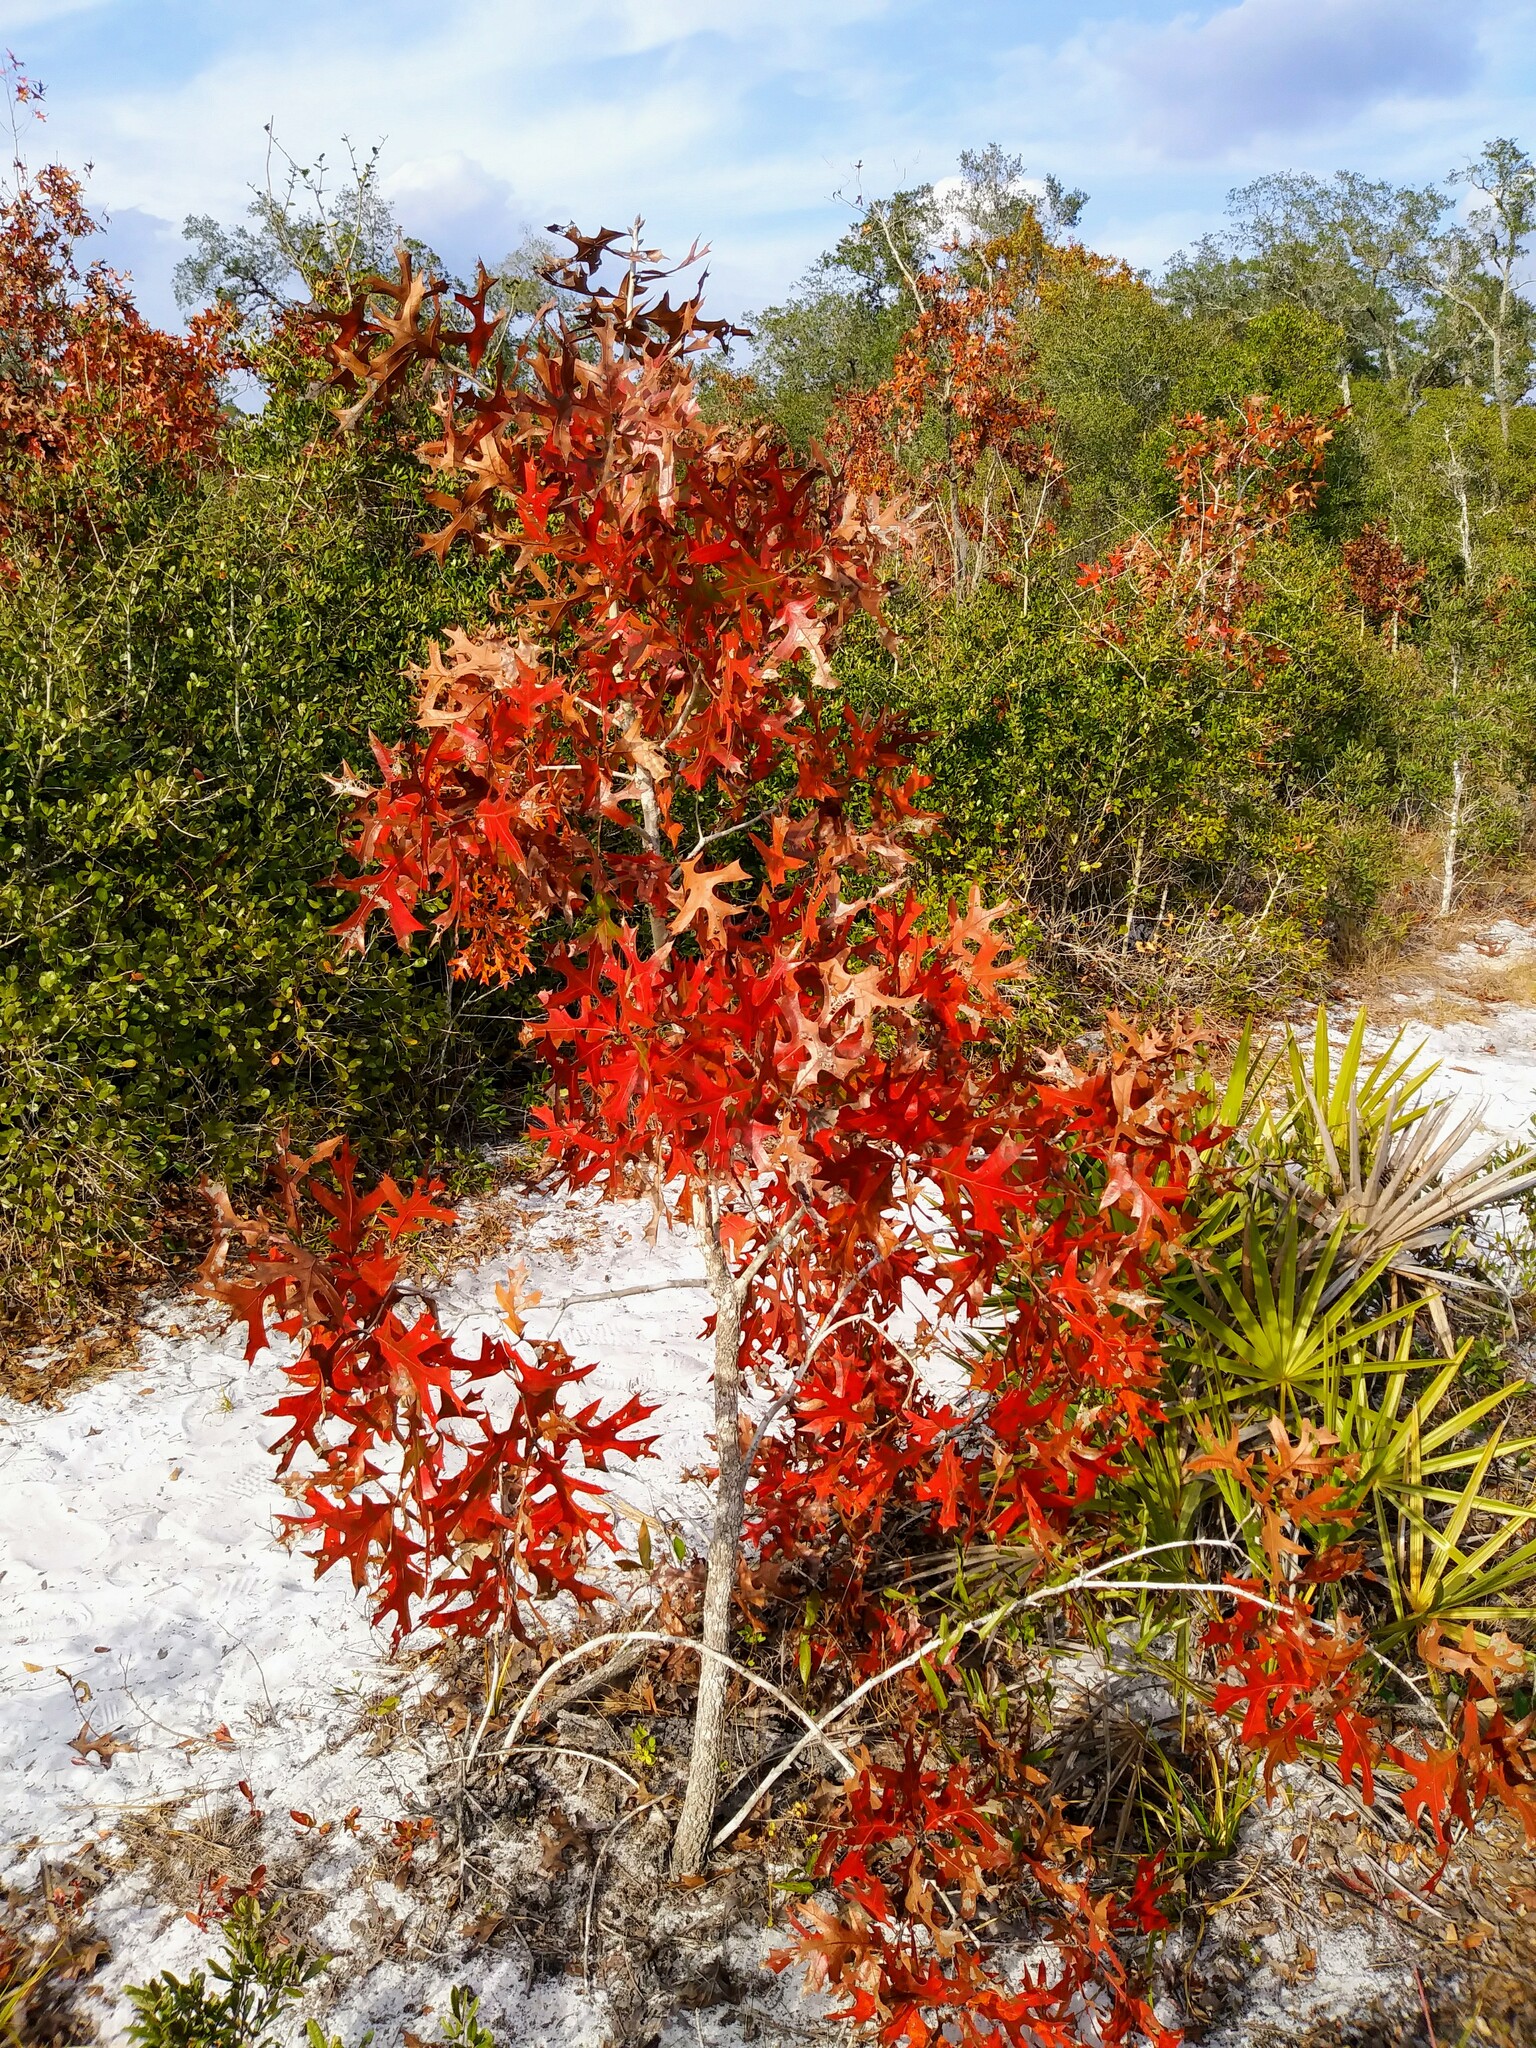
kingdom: Plantae
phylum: Tracheophyta
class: Magnoliopsida
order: Fagales
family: Fagaceae
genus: Quercus
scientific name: Quercus laevis
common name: Turkey oak
